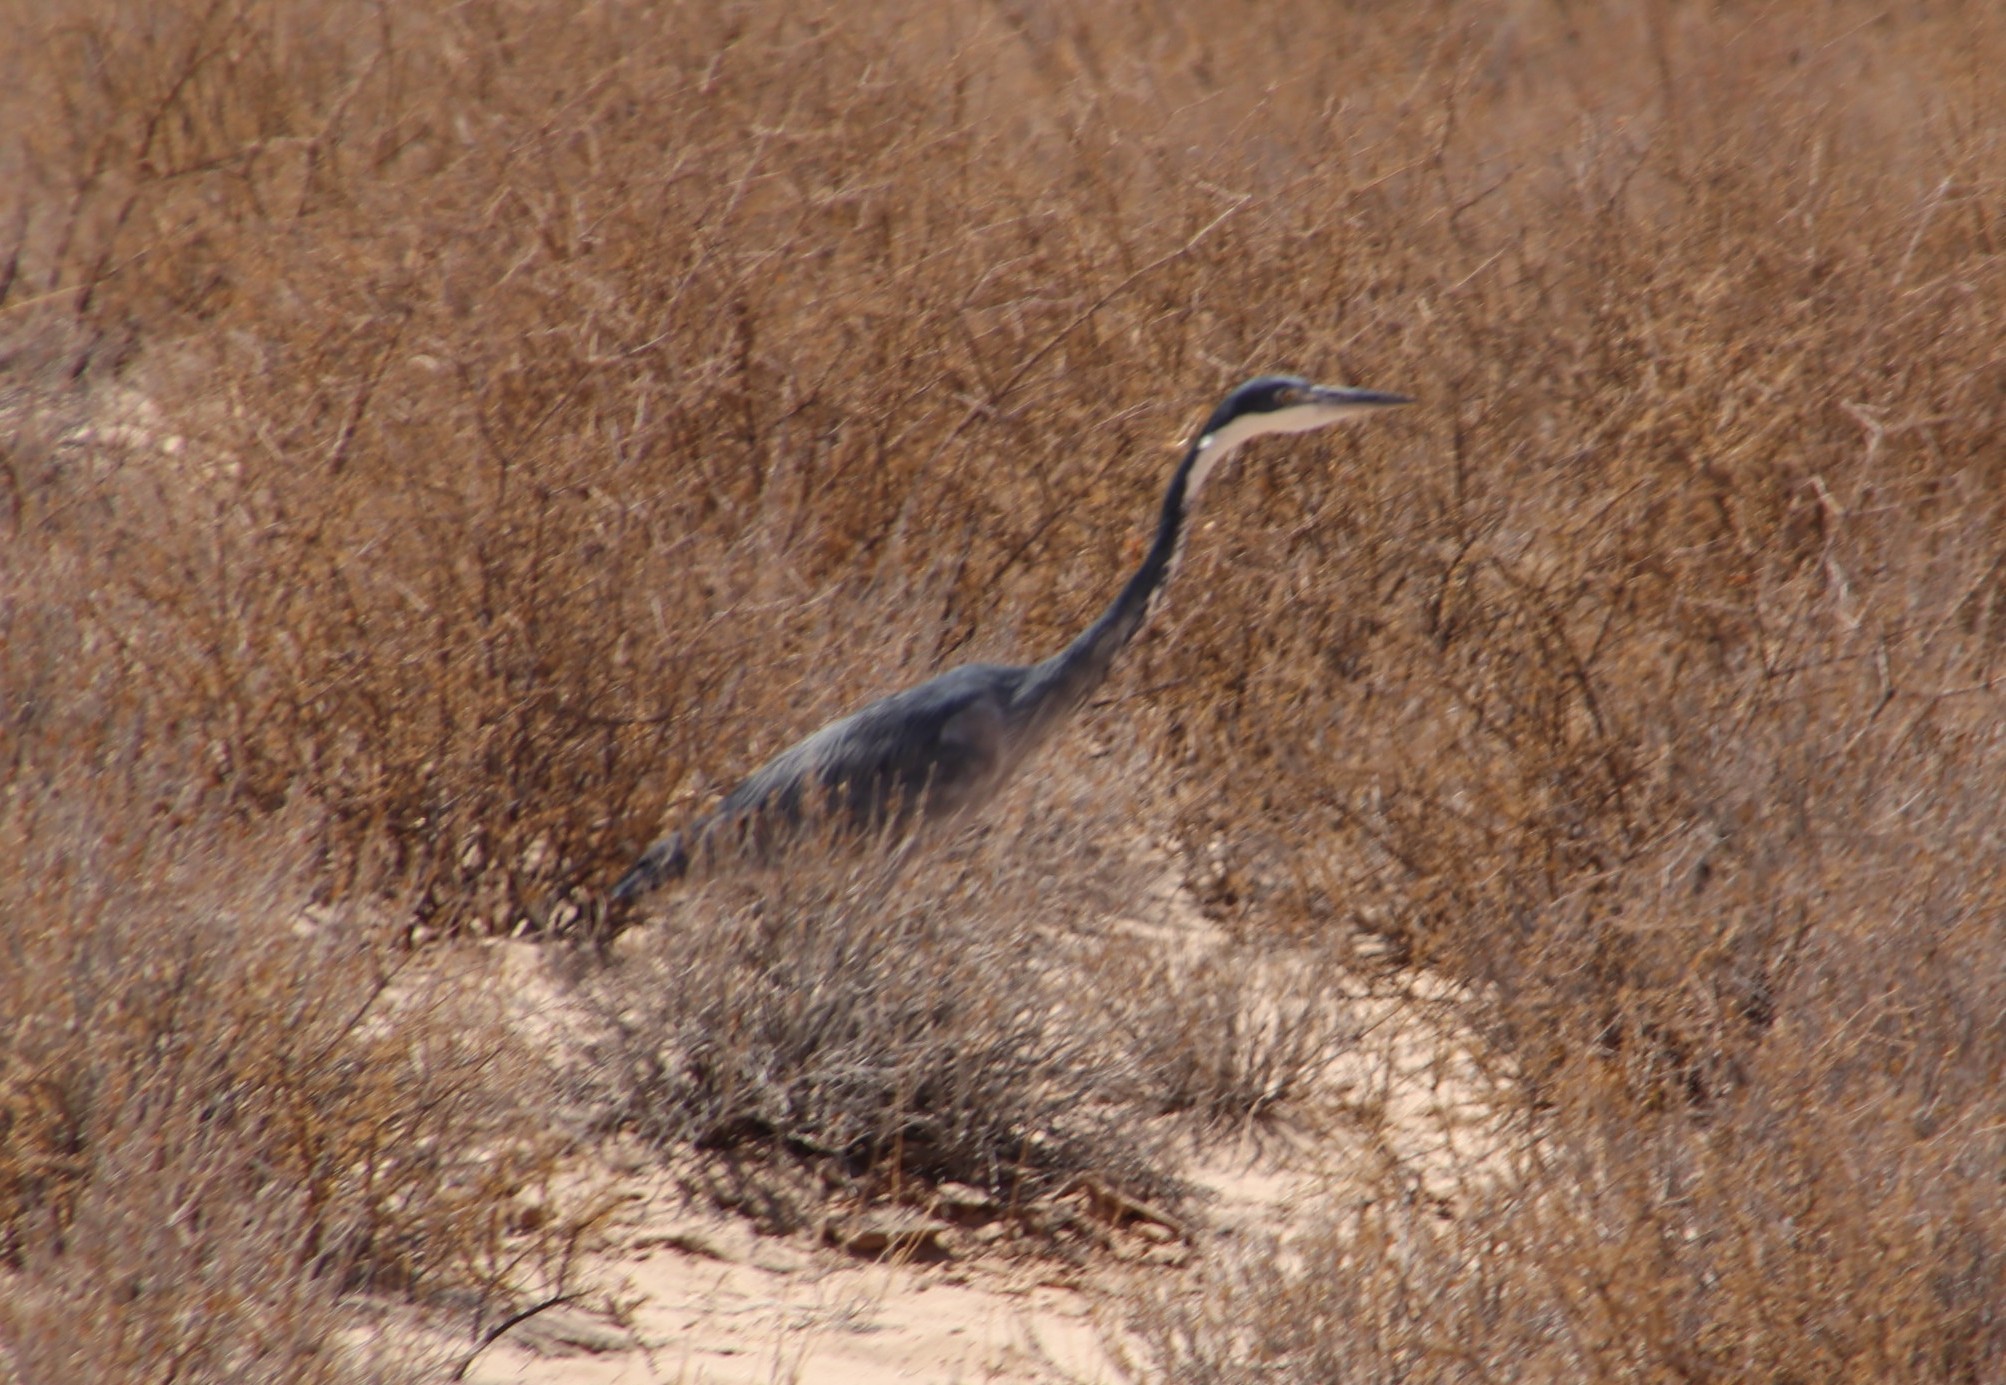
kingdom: Animalia
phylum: Chordata
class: Aves
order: Pelecaniformes
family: Ardeidae
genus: Ardea
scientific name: Ardea melanocephala
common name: Black-headed heron
